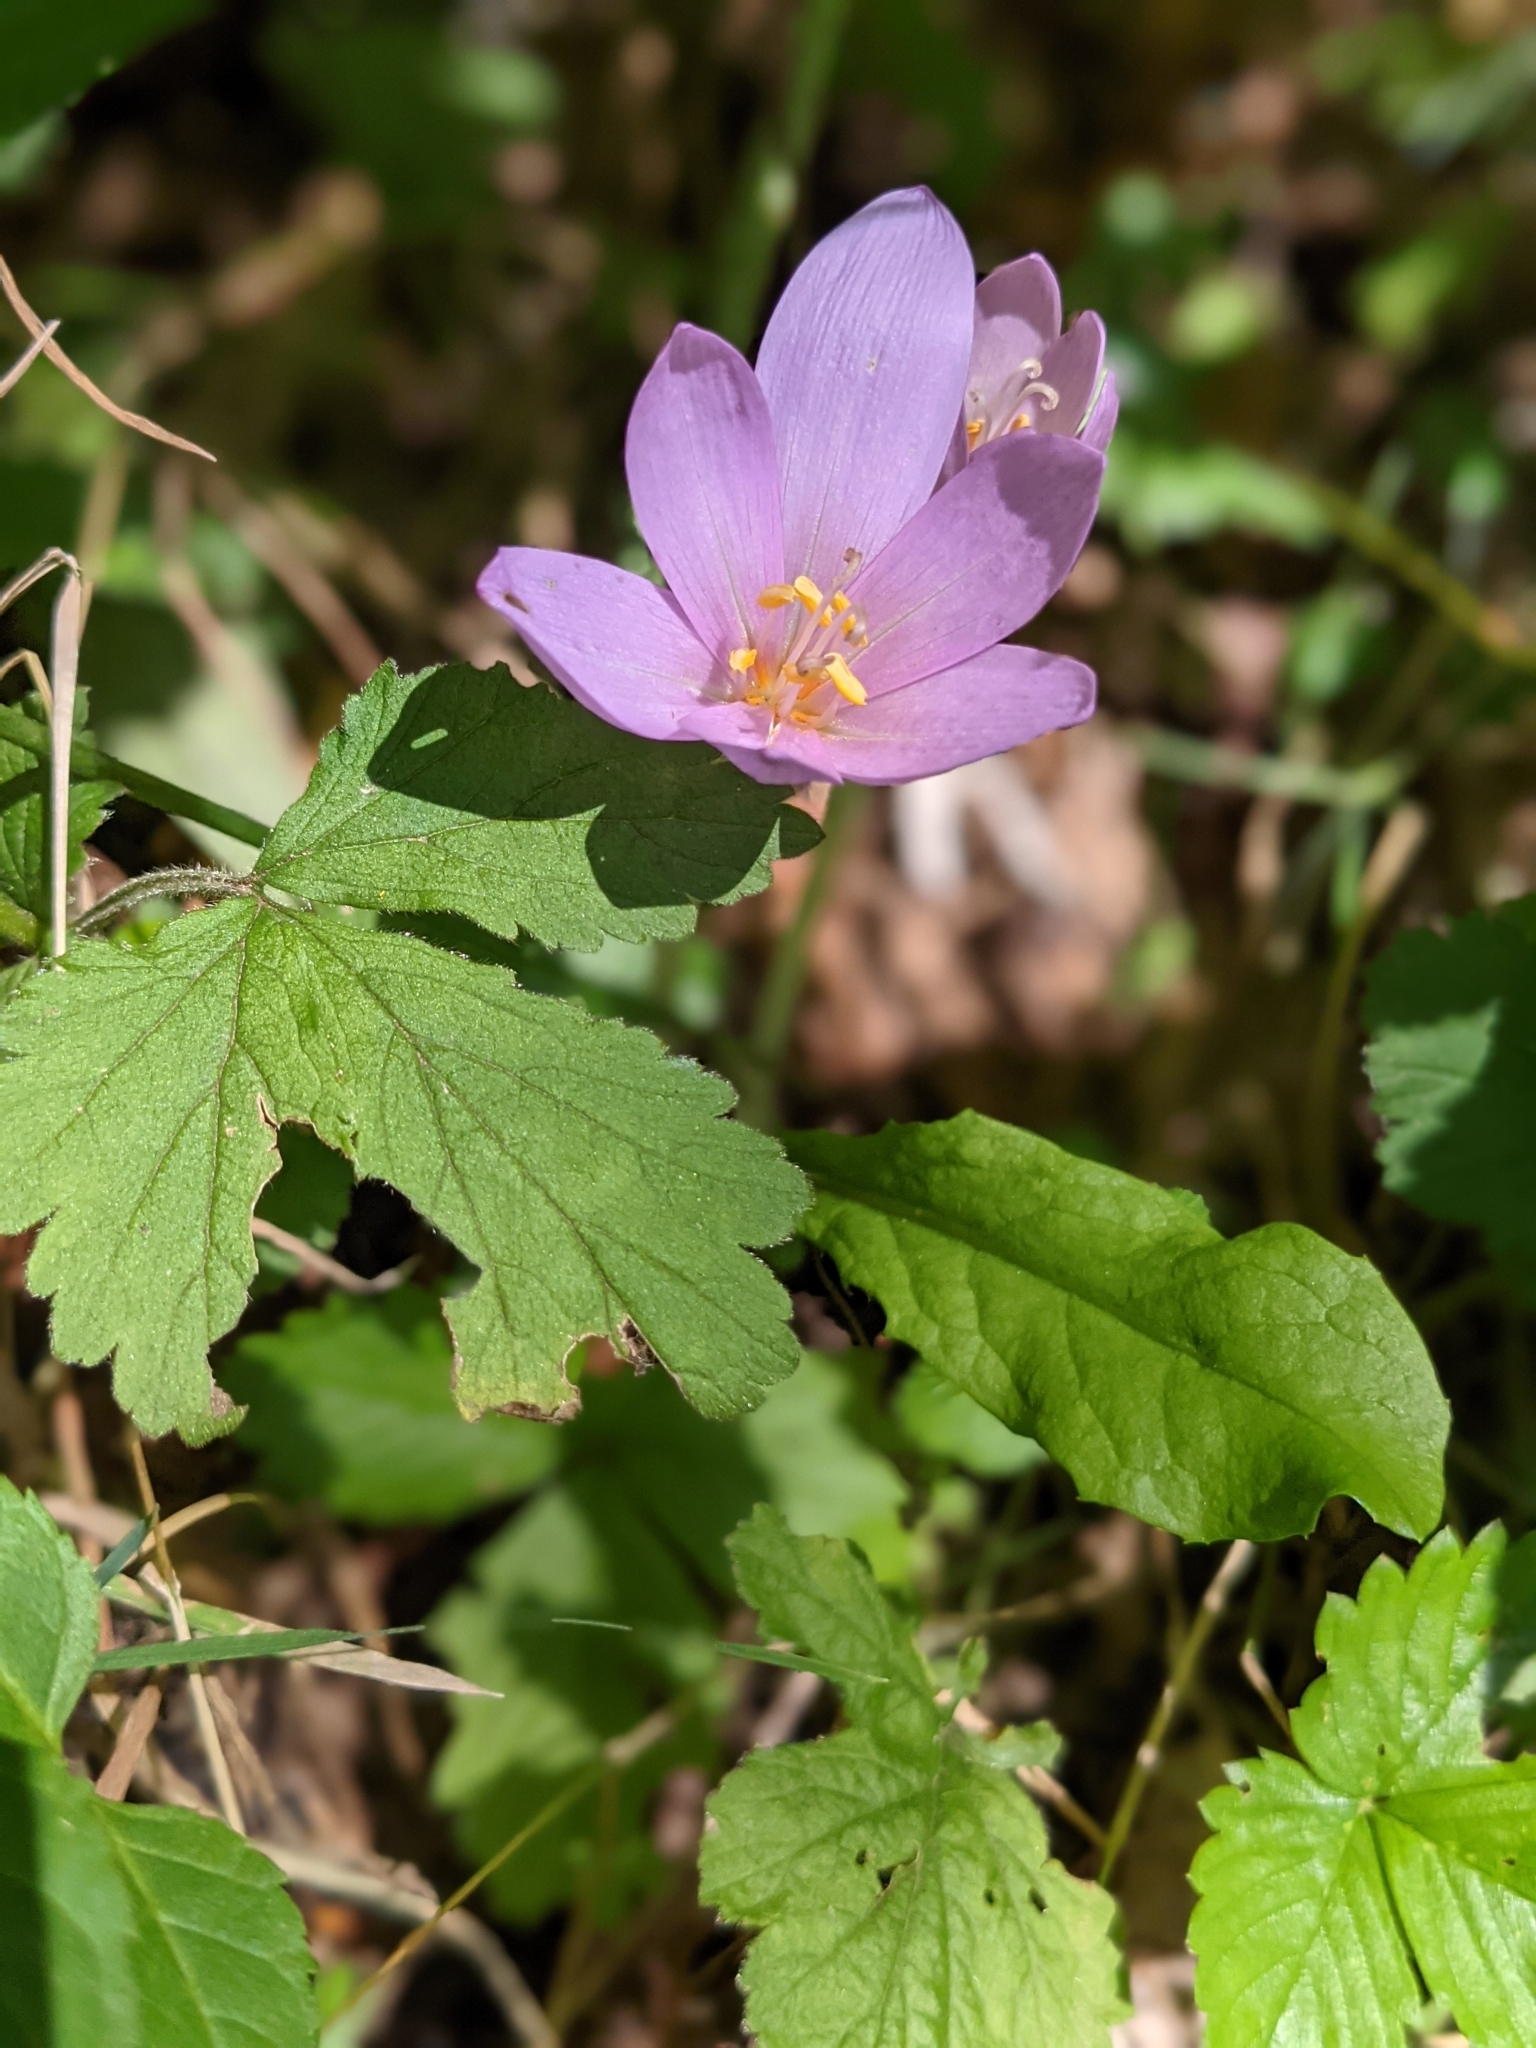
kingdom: Plantae
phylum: Tracheophyta
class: Liliopsida
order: Liliales
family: Colchicaceae
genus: Colchicum
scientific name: Colchicum autumnale
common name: Autumn crocus
